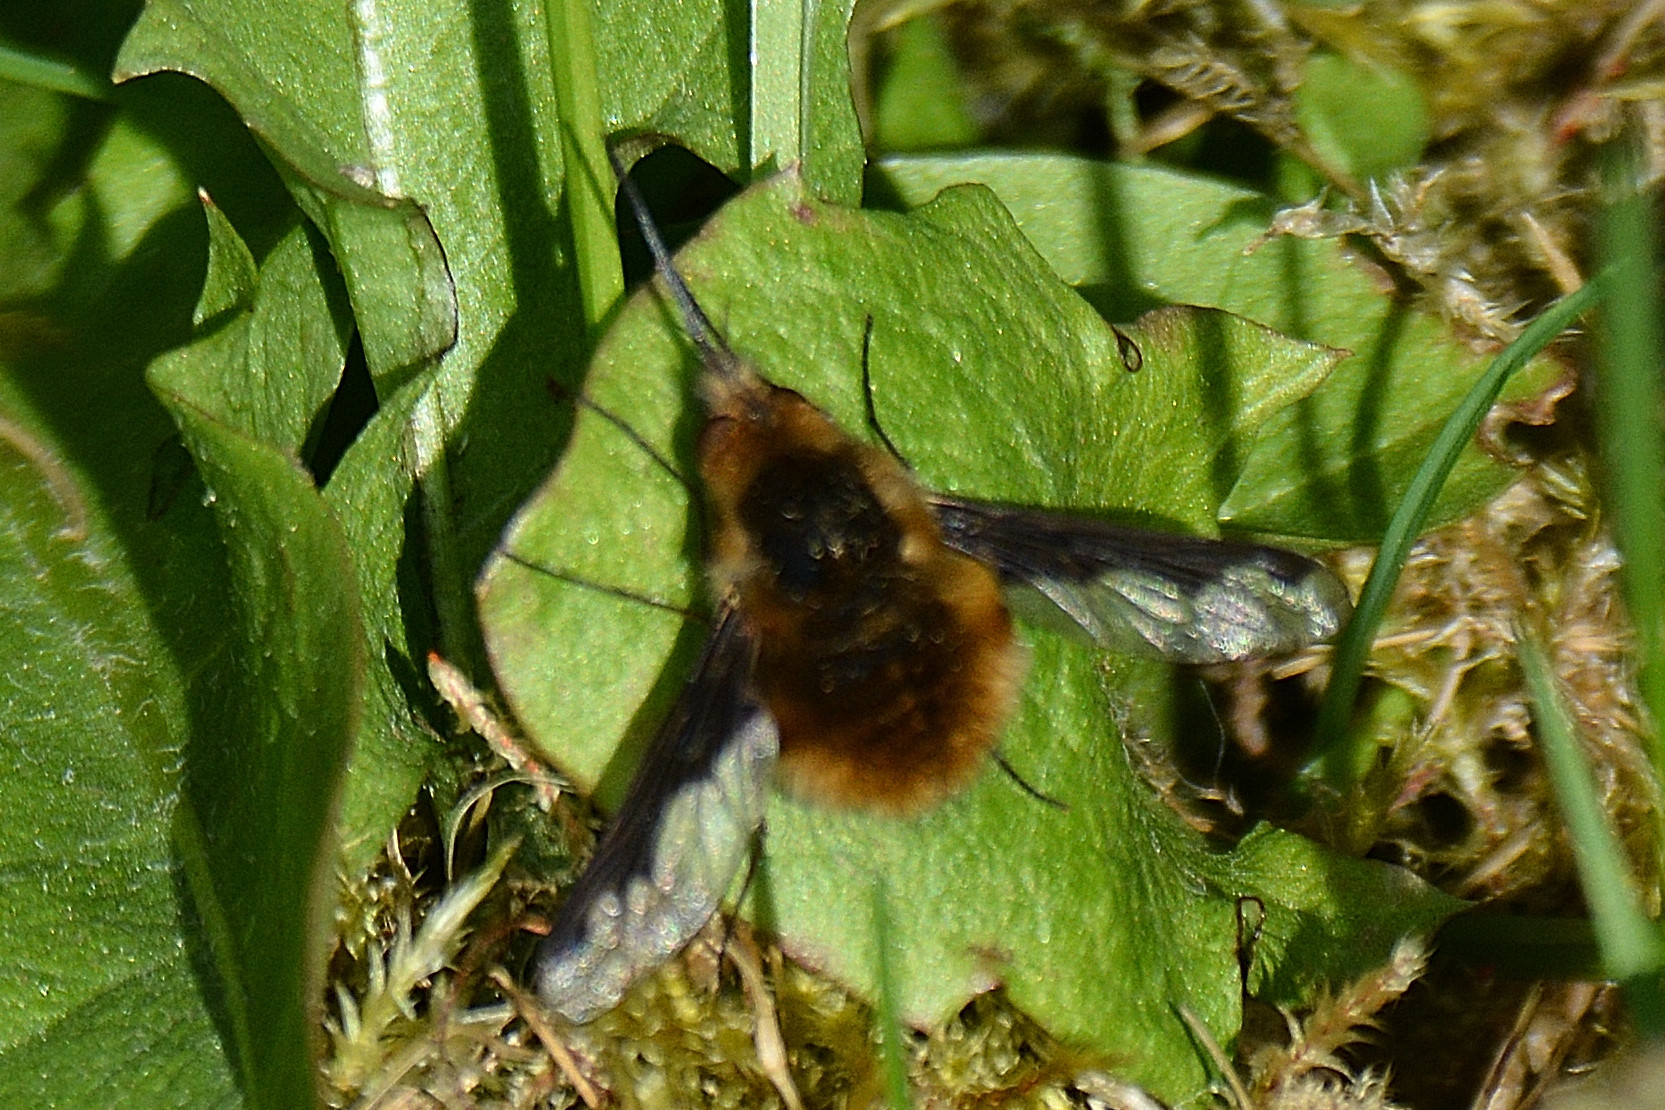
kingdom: Animalia
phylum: Arthropoda
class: Insecta
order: Diptera
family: Bombyliidae
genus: Bombylius
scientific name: Bombylius major
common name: Bee fly
